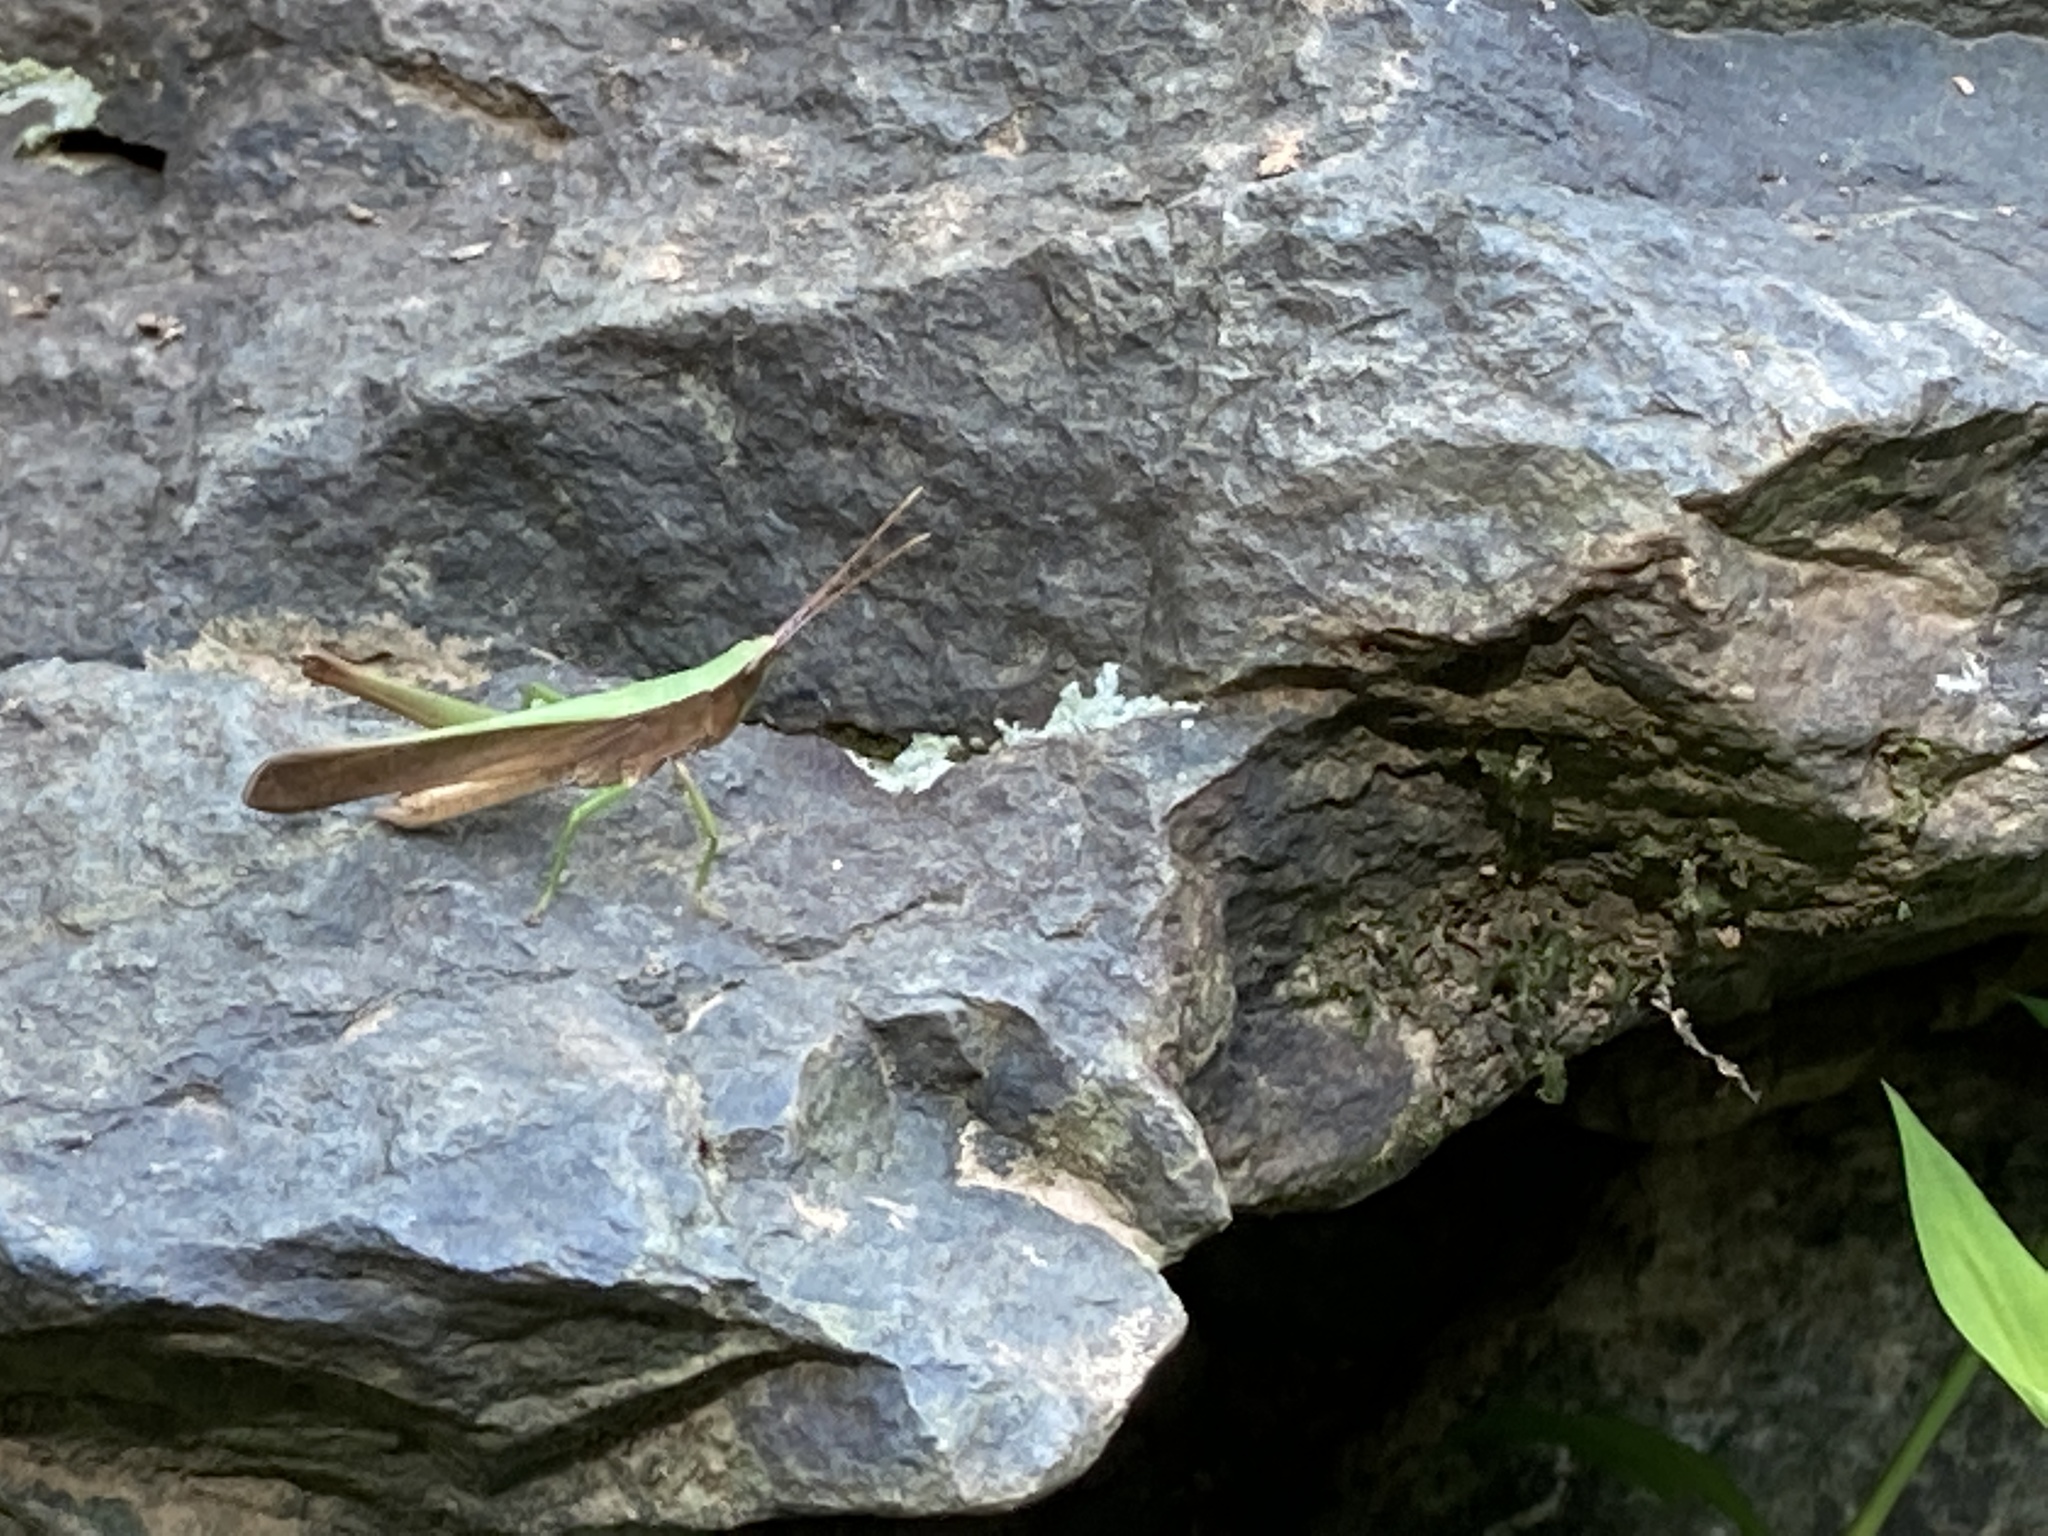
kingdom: Animalia
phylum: Arthropoda
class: Insecta
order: Orthoptera
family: Acrididae
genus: Metaleptea
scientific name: Metaleptea brevicornis
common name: Clipped-wing grasshopper
